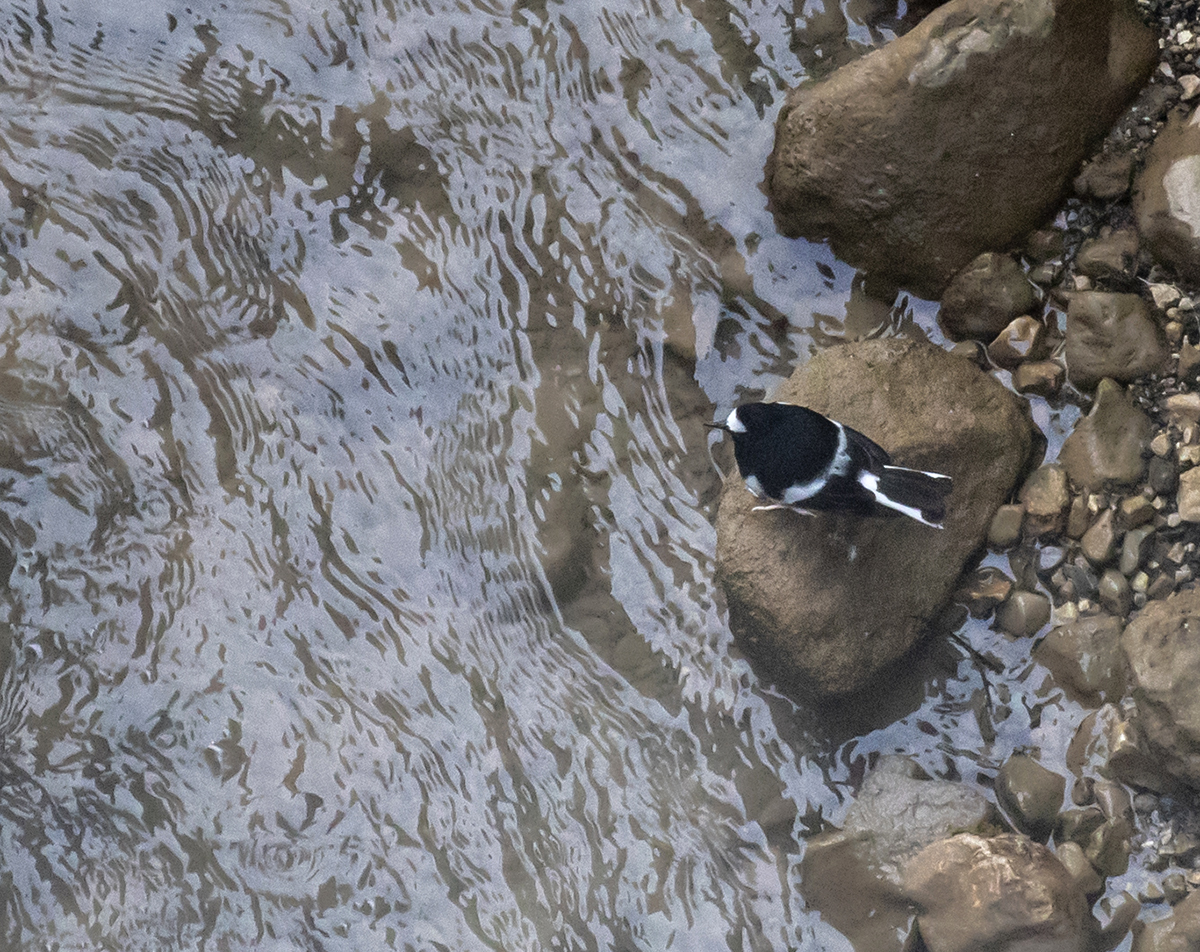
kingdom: Animalia
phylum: Chordata
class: Aves
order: Passeriformes
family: Muscicapidae
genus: Enicurus
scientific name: Enicurus scouleri
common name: Little forktail
